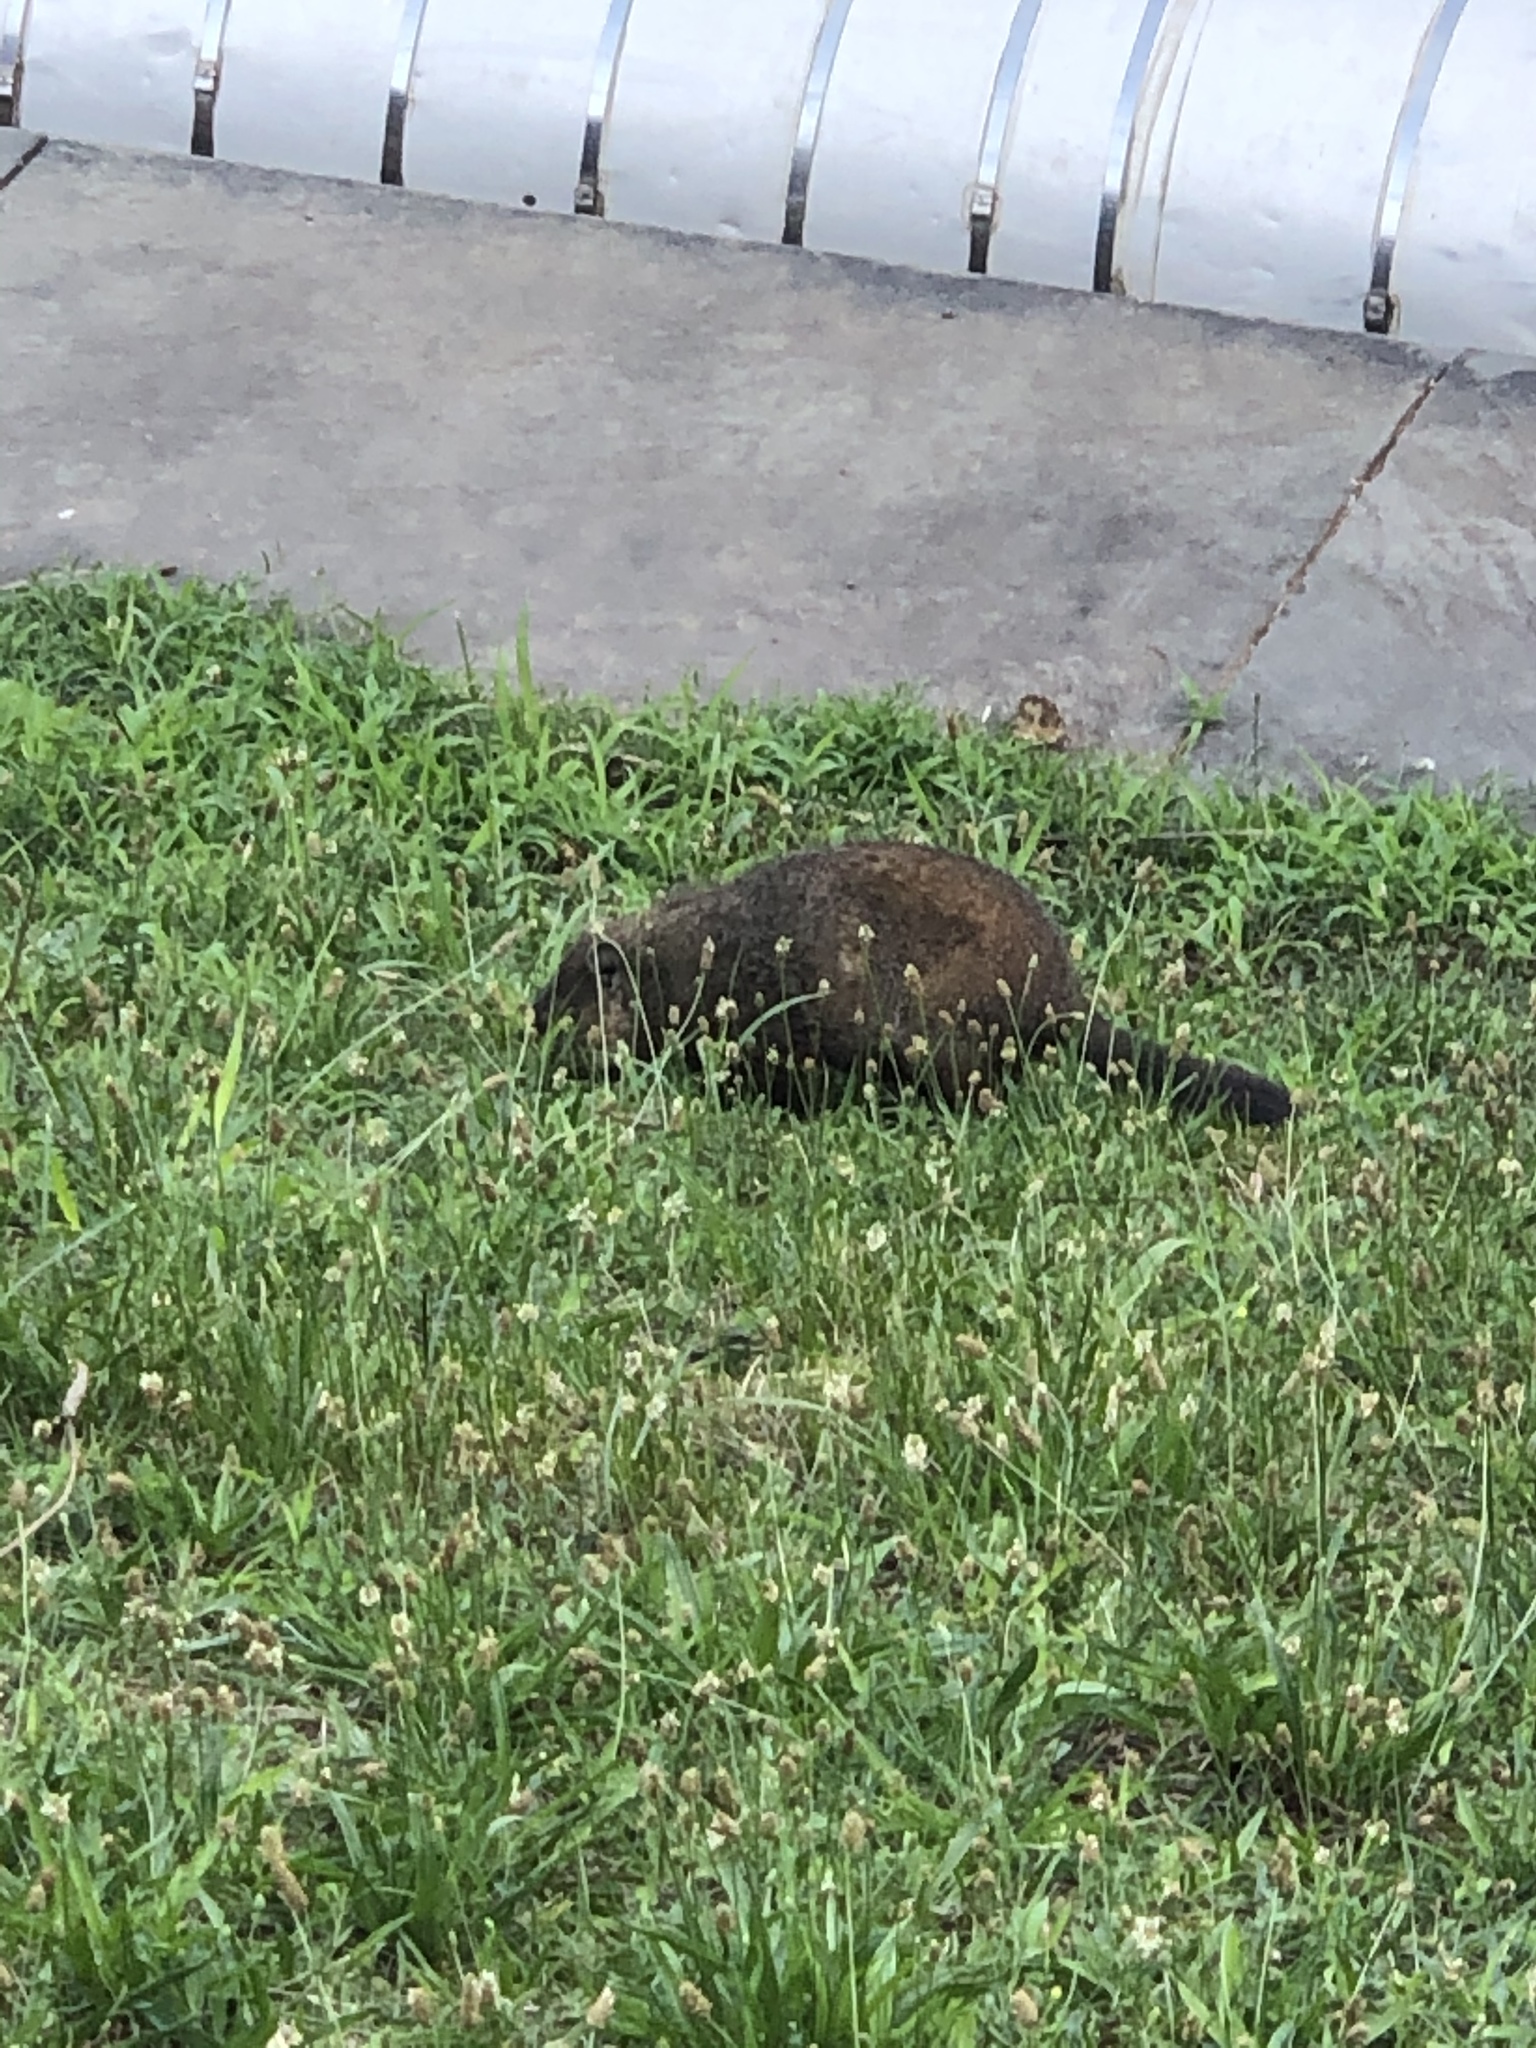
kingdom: Animalia
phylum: Chordata
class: Mammalia
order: Rodentia
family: Sciuridae
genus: Marmota
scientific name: Marmota monax
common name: Groundhog
